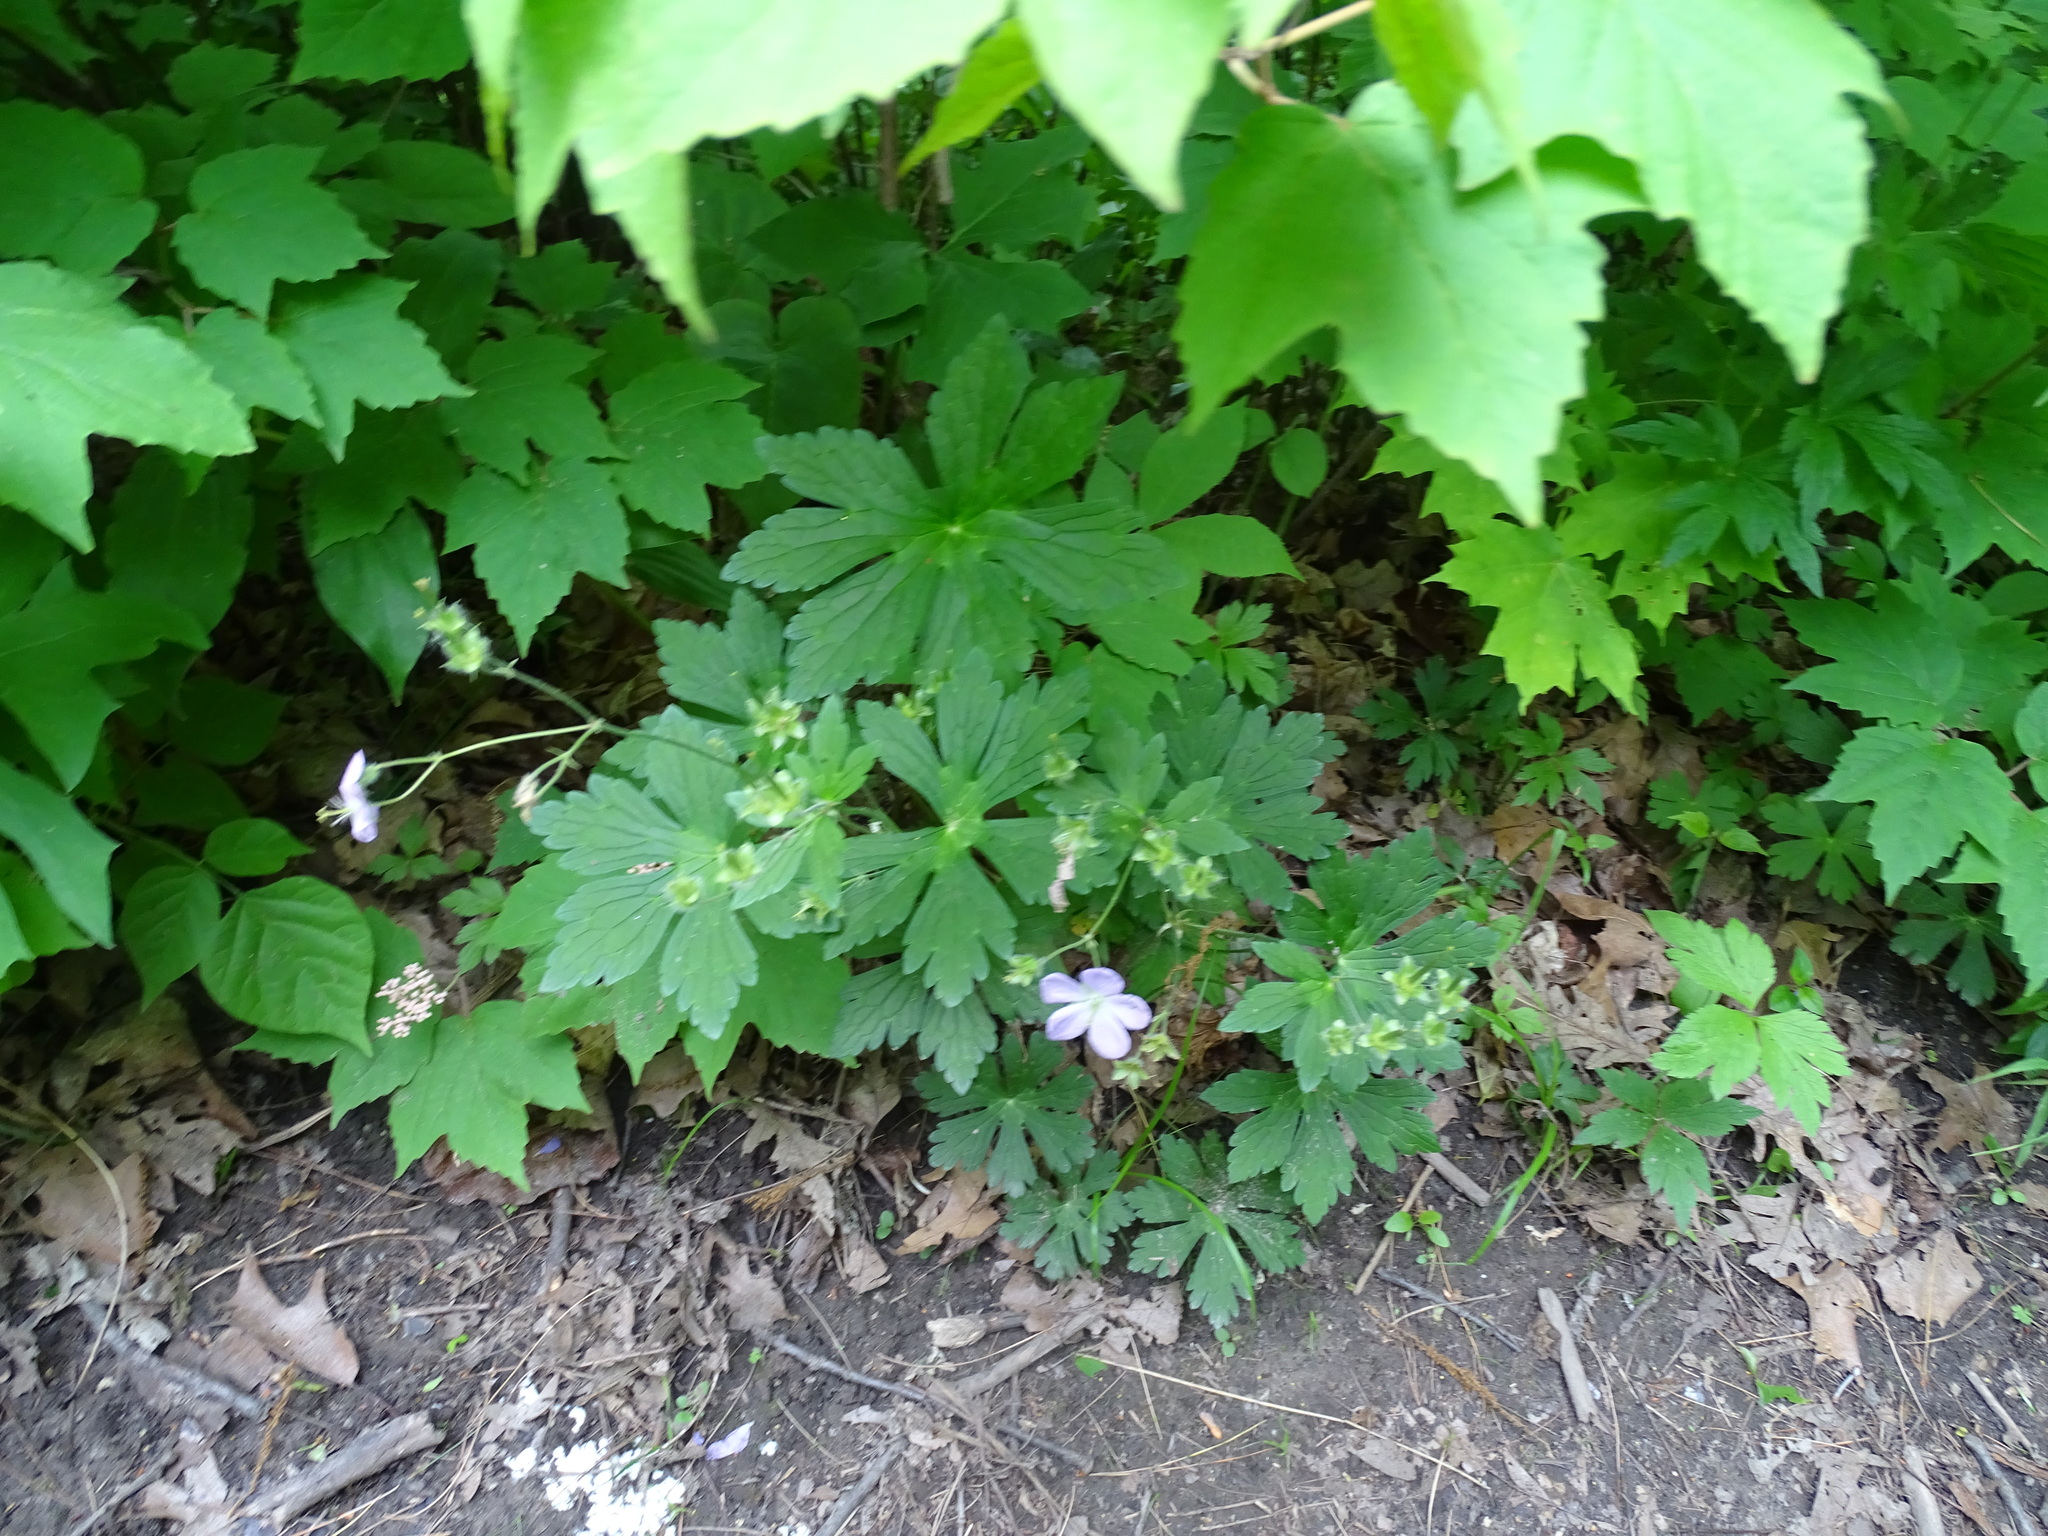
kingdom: Plantae
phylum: Tracheophyta
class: Magnoliopsida
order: Geraniales
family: Geraniaceae
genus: Geranium
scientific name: Geranium maculatum
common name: Spotted geranium
